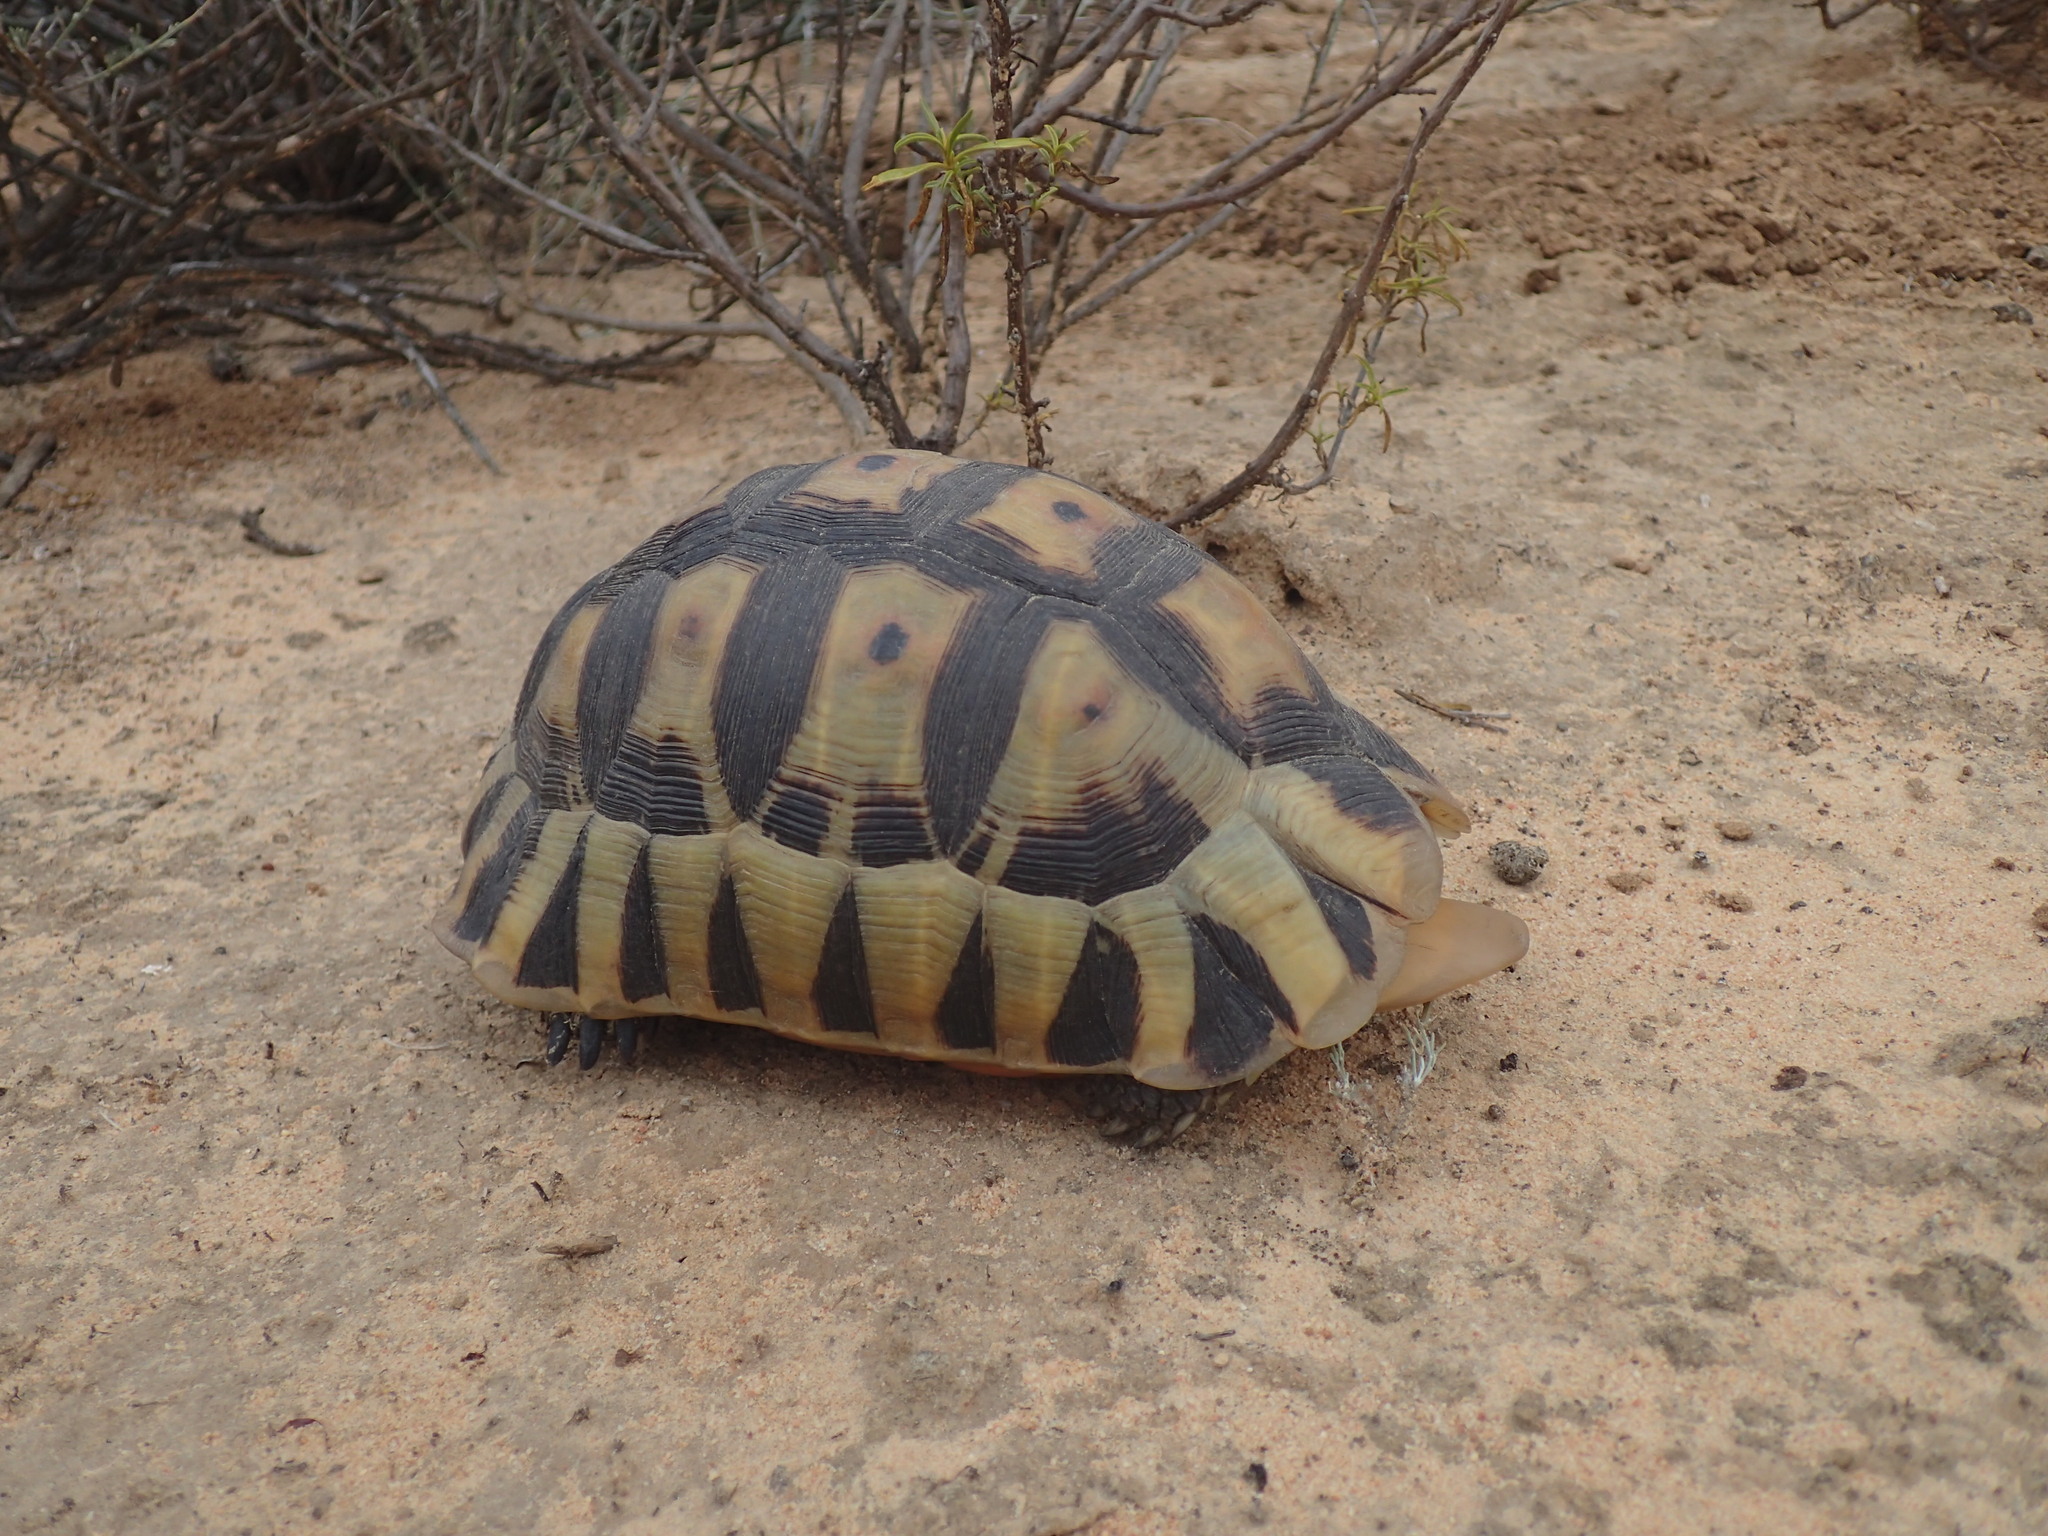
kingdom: Animalia
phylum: Chordata
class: Testudines
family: Testudinidae
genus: Chersina
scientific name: Chersina angulata
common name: South african bowsprit tortoise
